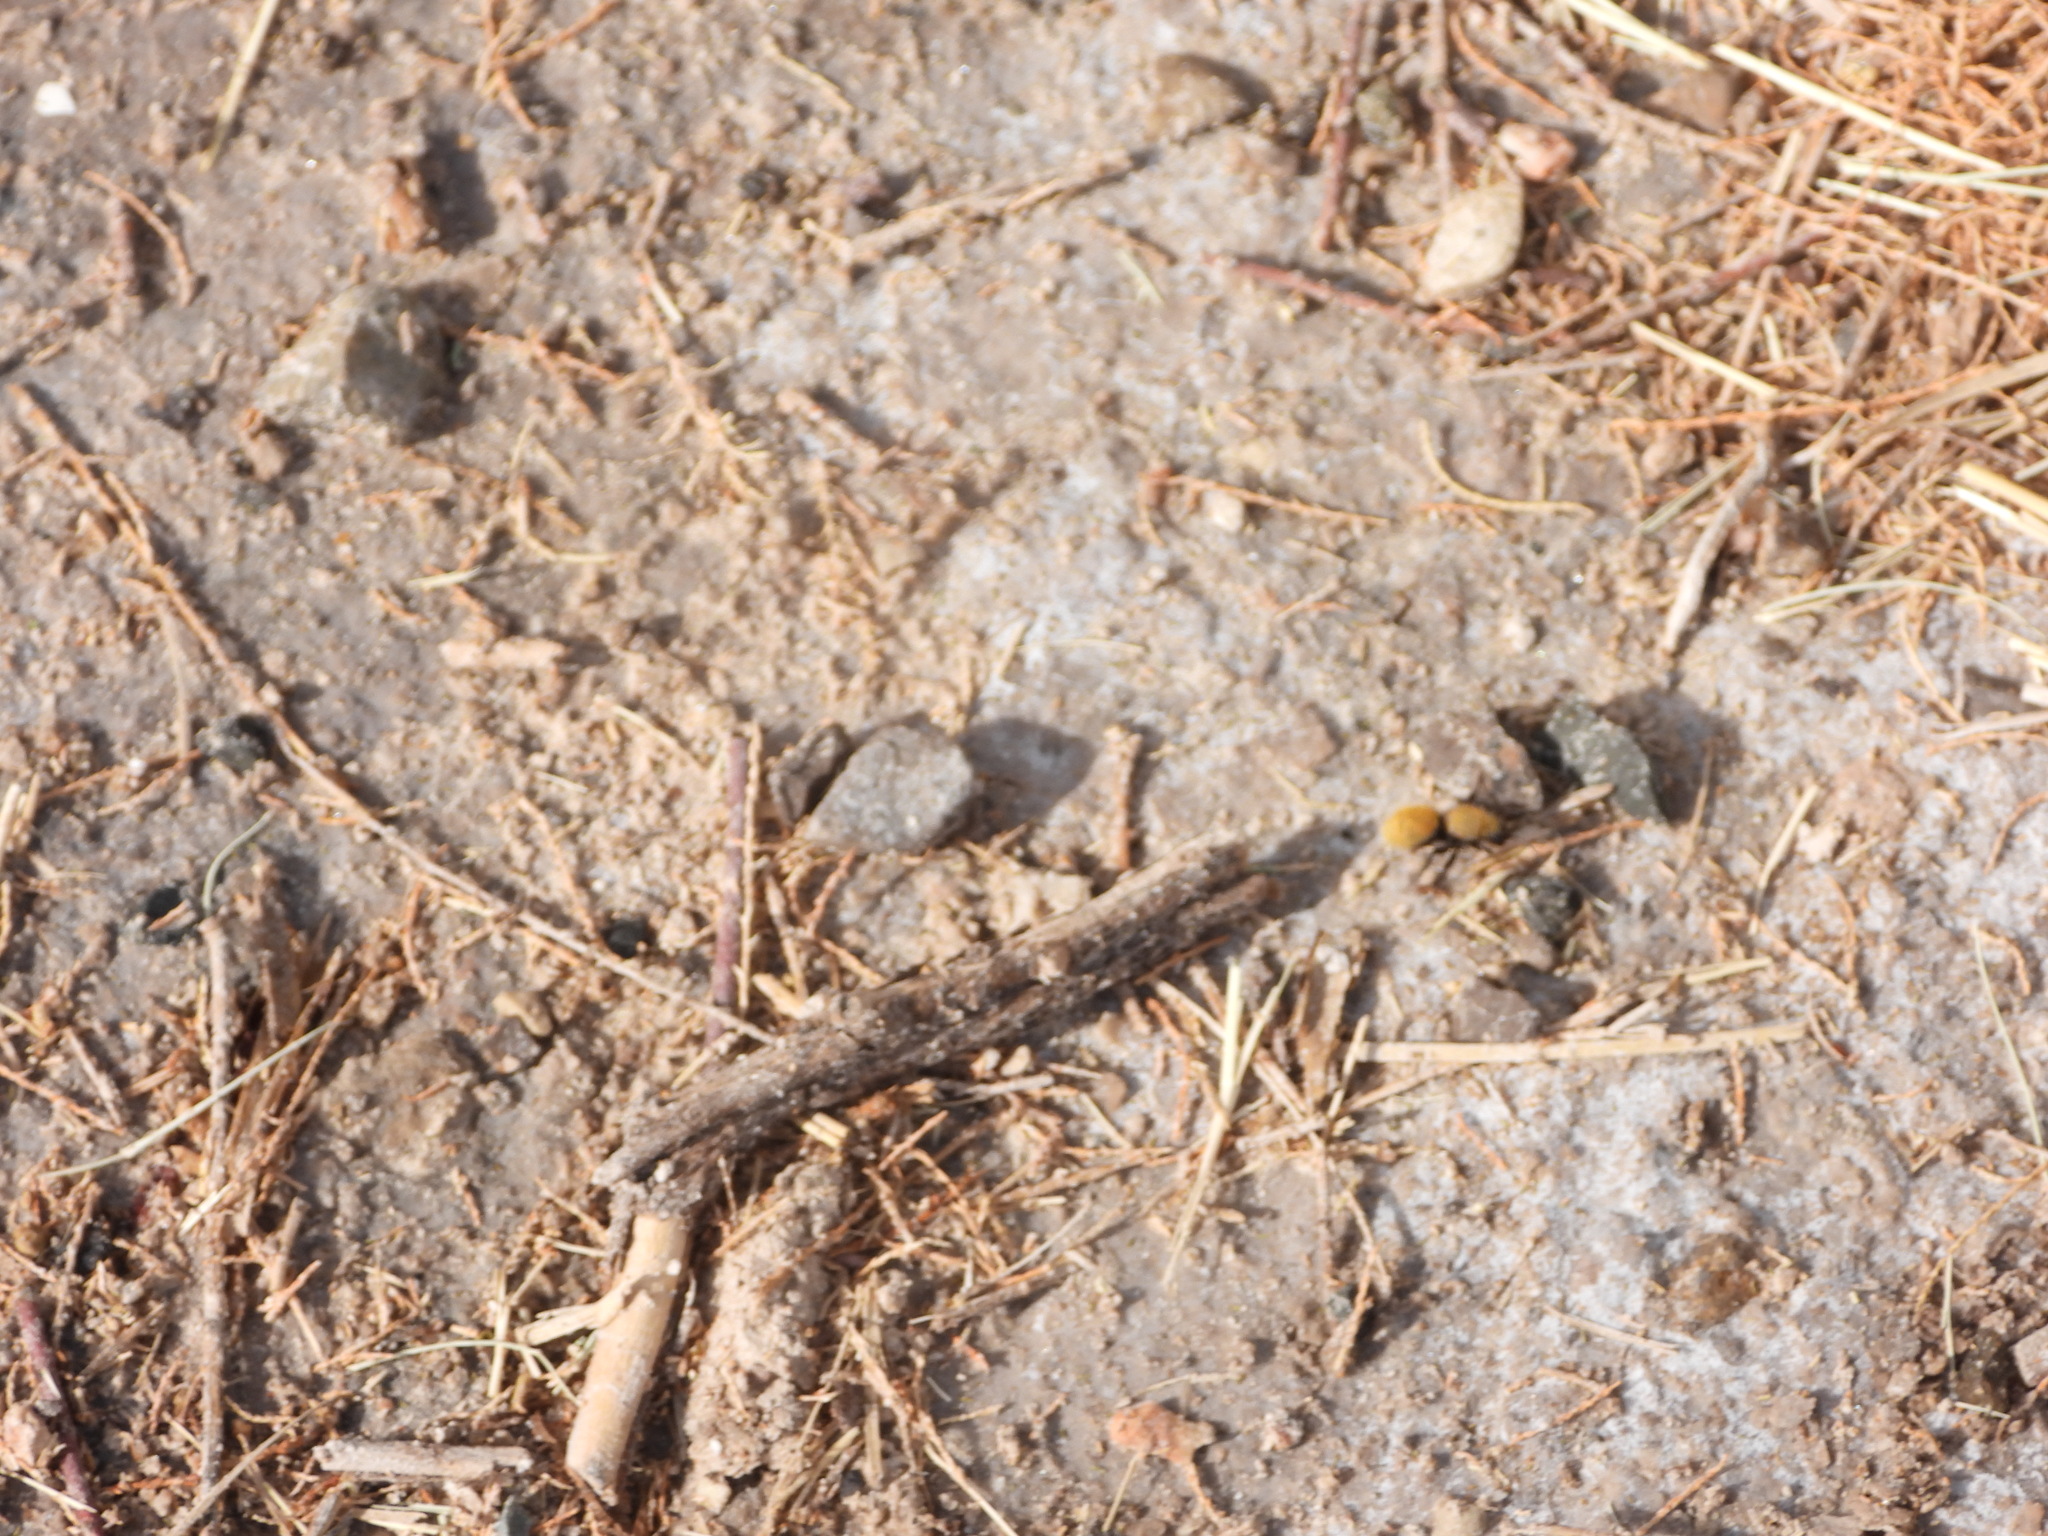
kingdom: Animalia
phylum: Arthropoda
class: Insecta
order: Hymenoptera
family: Mutillidae
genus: Dasymutilla
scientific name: Dasymutilla vestita
